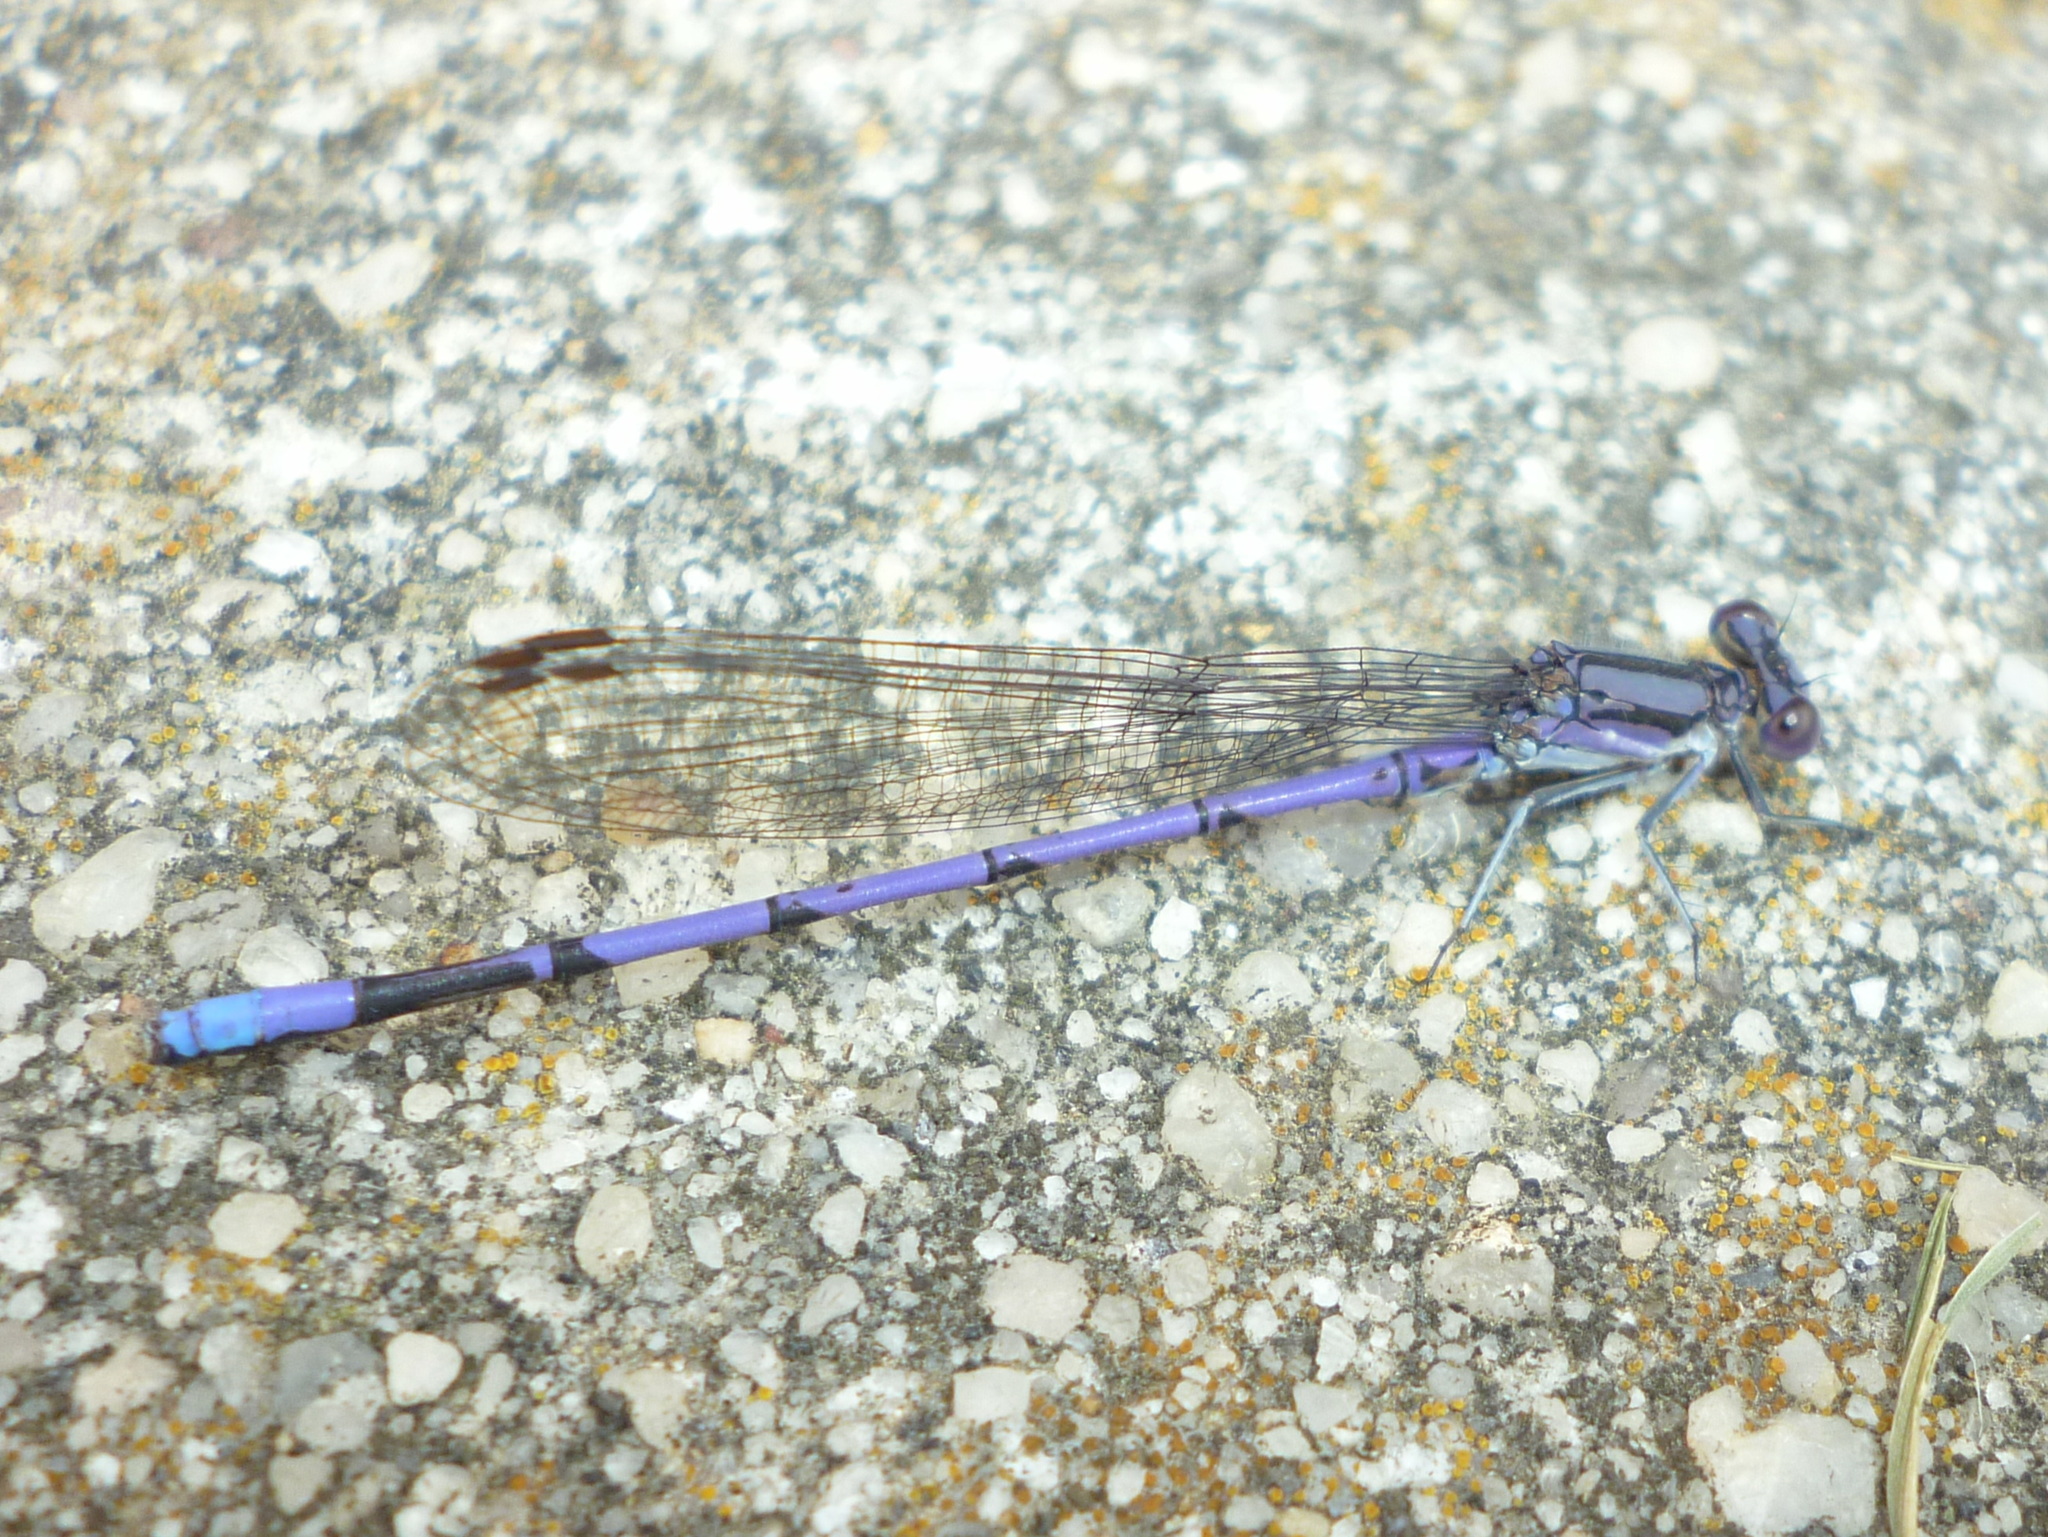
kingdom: Animalia
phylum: Arthropoda
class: Insecta
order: Odonata
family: Coenagrionidae
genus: Argia
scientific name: Argia fumipennis
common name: Variable dancer
